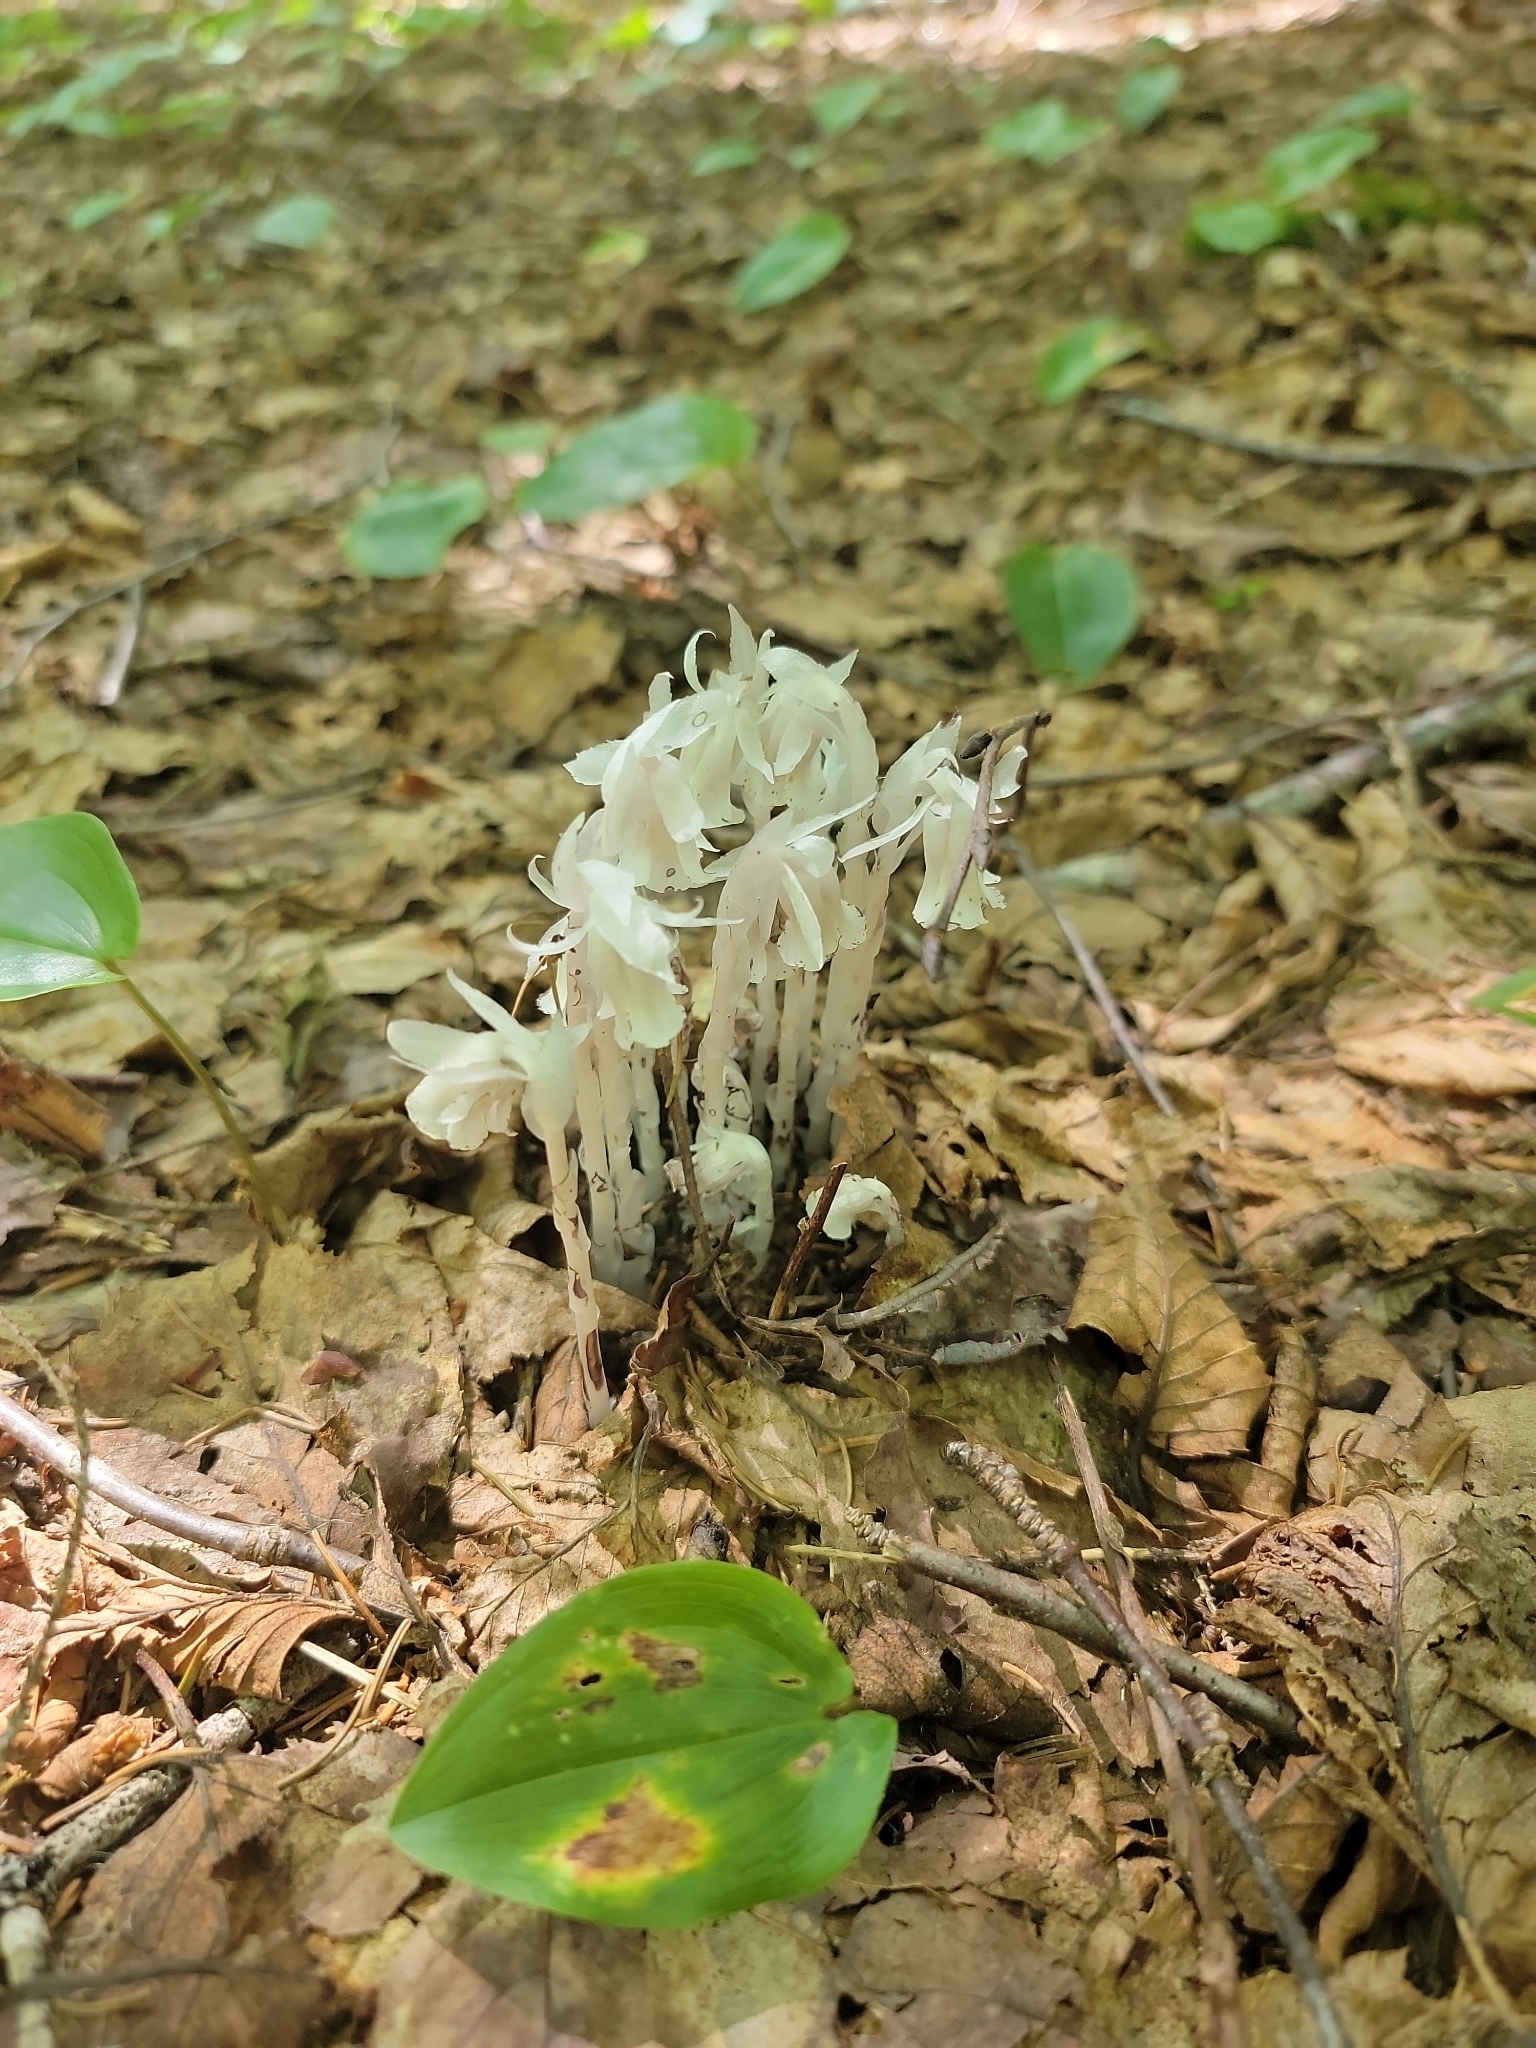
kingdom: Plantae
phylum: Tracheophyta
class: Magnoliopsida
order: Ericales
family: Ericaceae
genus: Monotropa
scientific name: Monotropa uniflora
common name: Convulsion root
